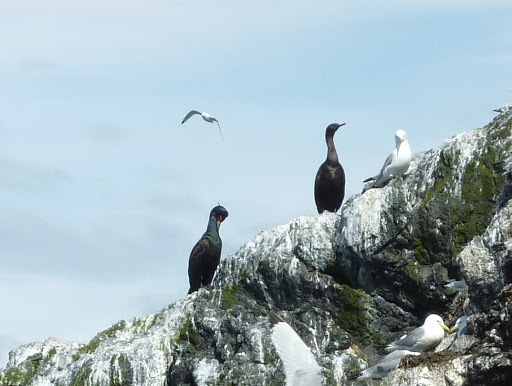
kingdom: Animalia
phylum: Chordata
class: Aves
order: Suliformes
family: Phalacrocoracidae
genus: Phalacrocorax
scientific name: Phalacrocorax urile
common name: Red-faced cormorant
